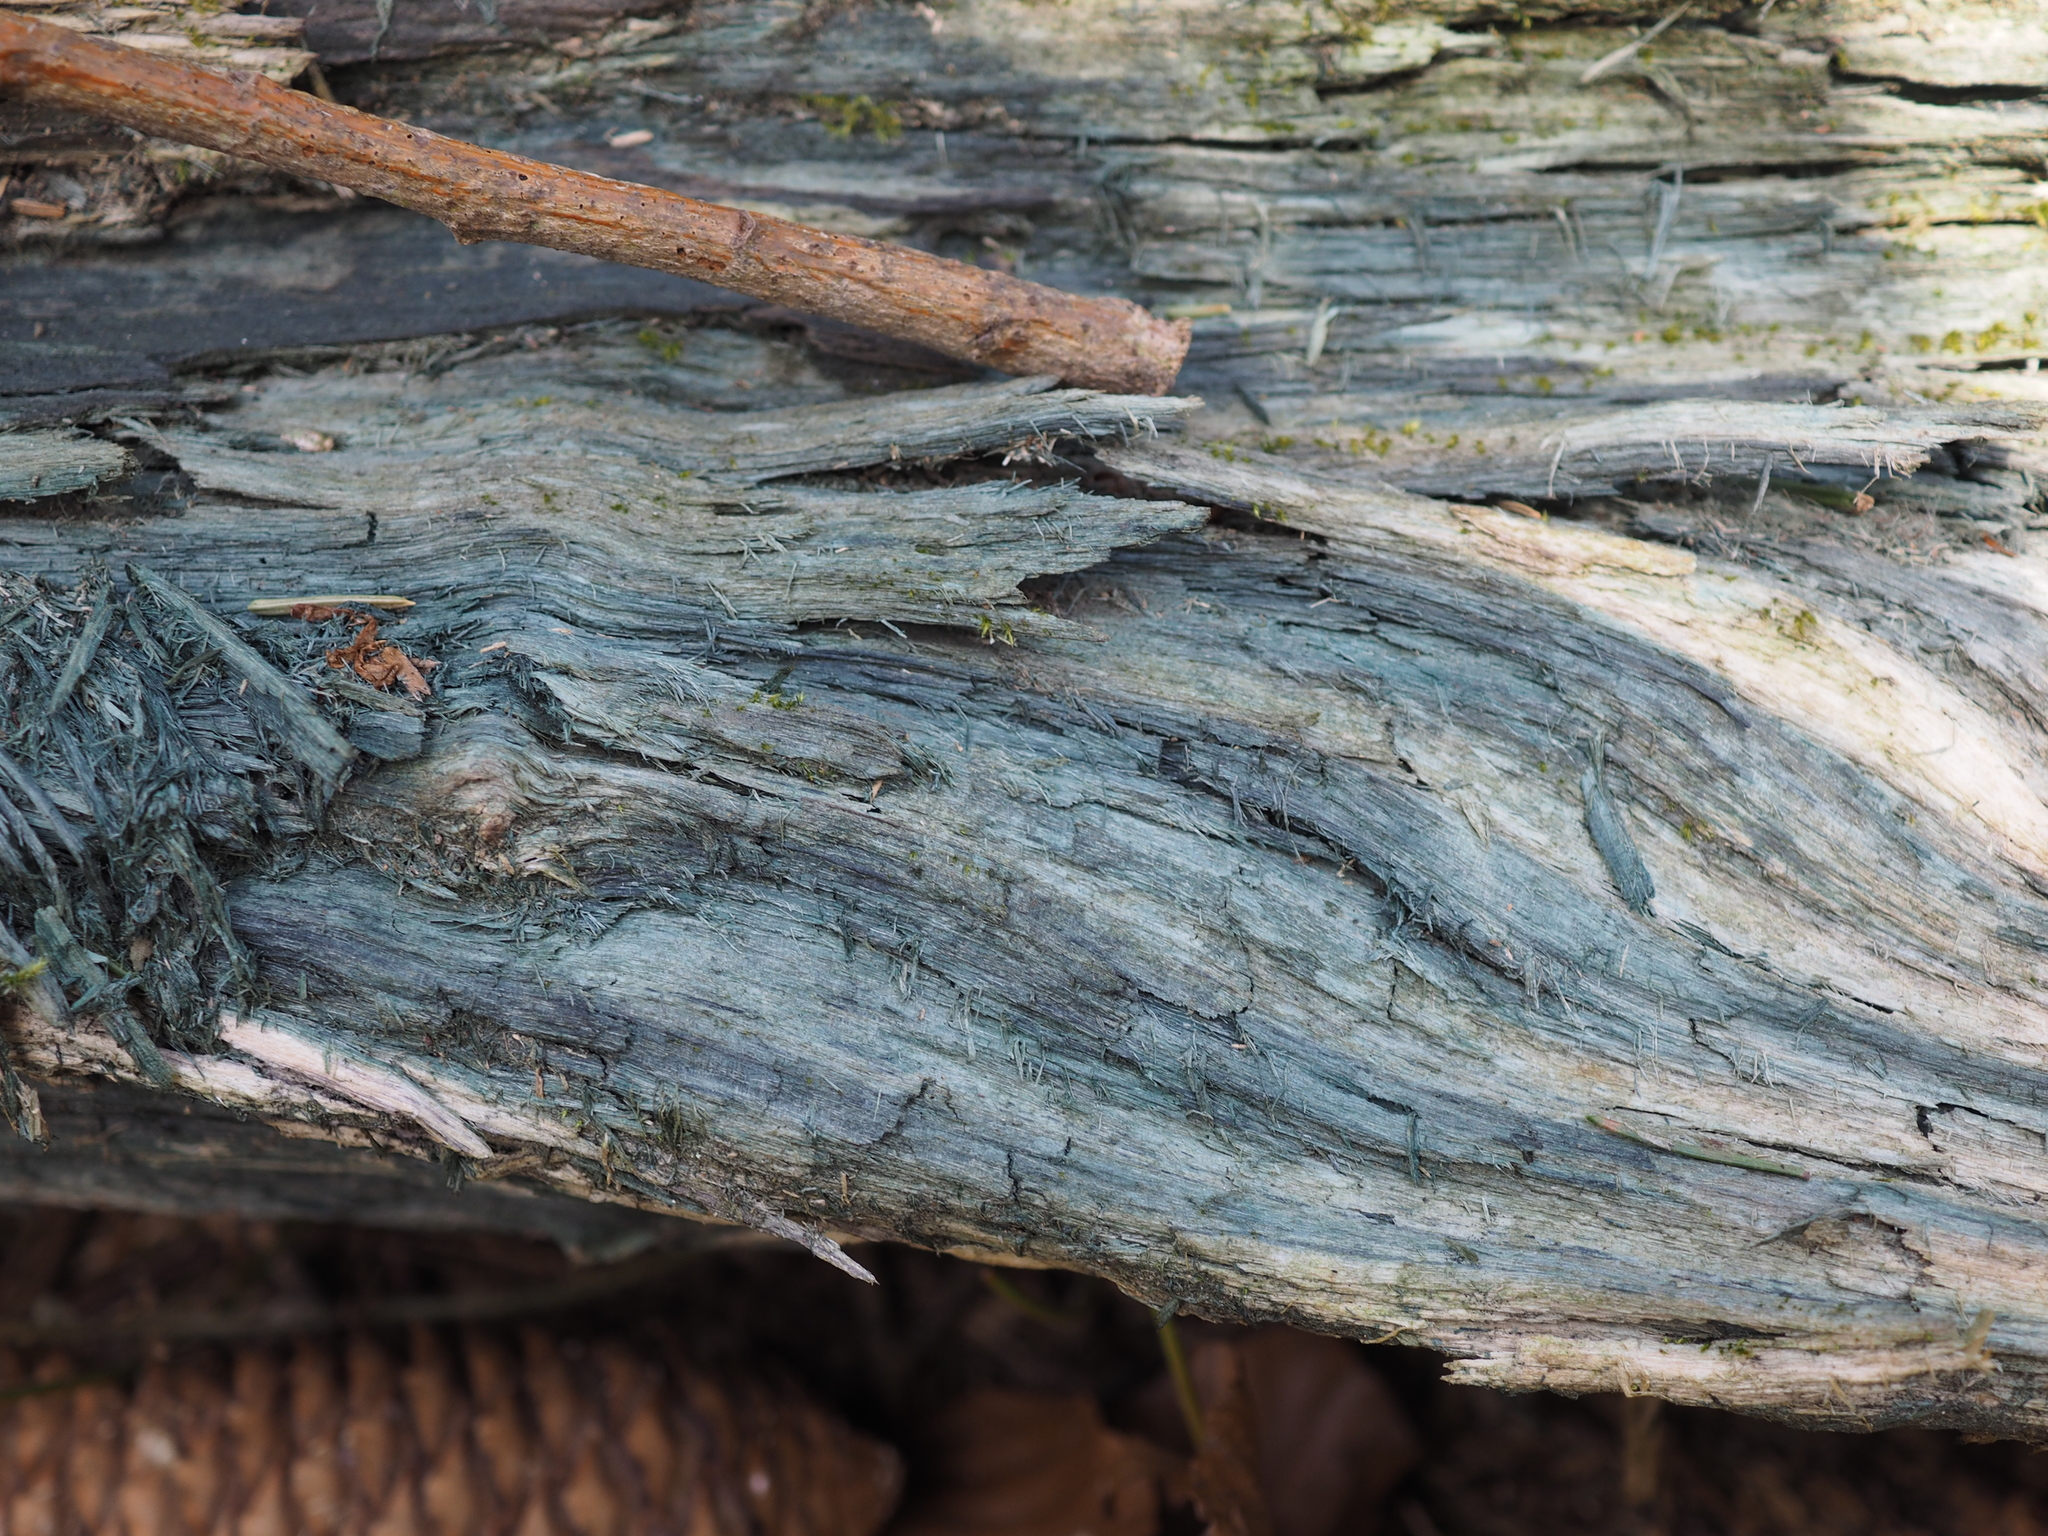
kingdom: Fungi
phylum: Ascomycota
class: Leotiomycetes
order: Helotiales
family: Chlorociboriaceae
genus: Chlorociboria
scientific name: Chlorociboria
